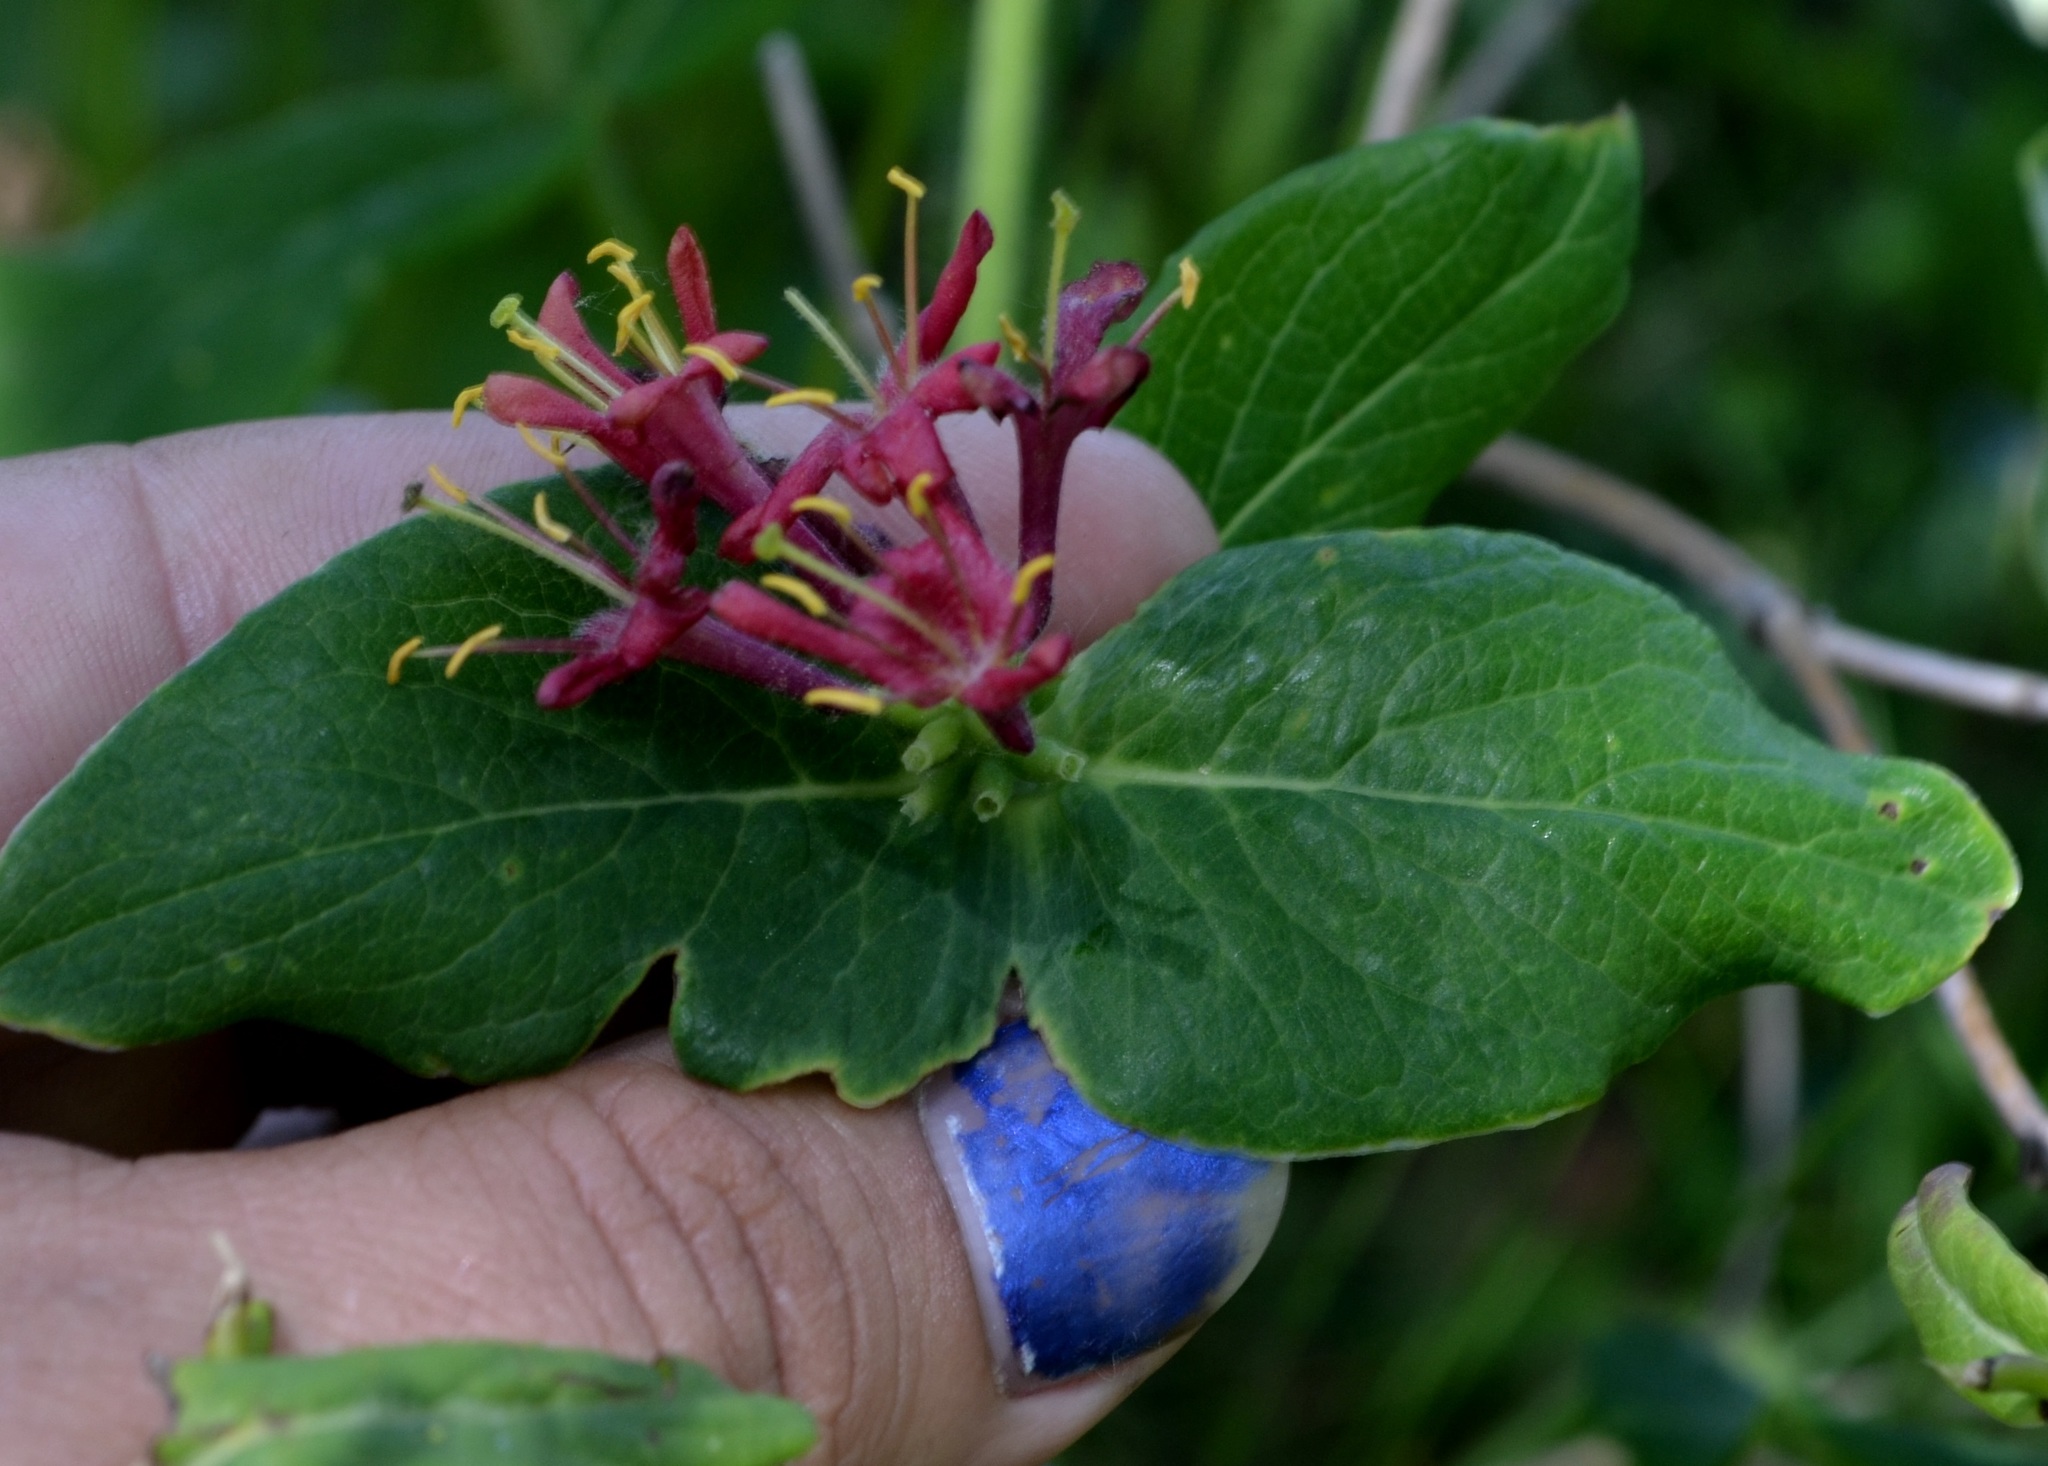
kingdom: Plantae
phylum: Tracheophyta
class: Magnoliopsida
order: Dipsacales
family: Caprifoliaceae
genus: Lonicera
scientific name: Lonicera dioica
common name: Limber honeysuckle
